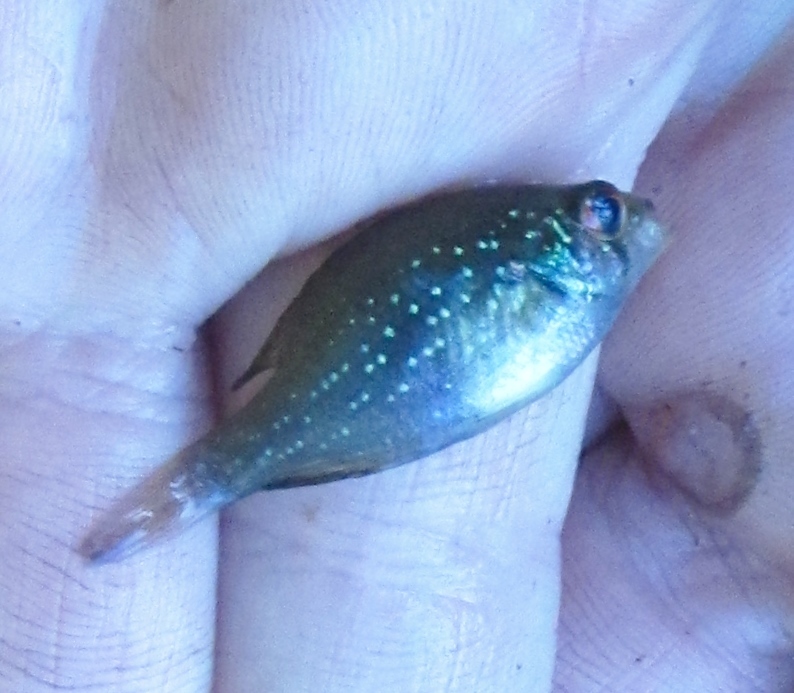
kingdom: Animalia
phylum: Chordata
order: Perciformes
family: Centrarchidae
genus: Enneacanthus
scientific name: Enneacanthus gloriosus
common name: Bluespotted sunfish
